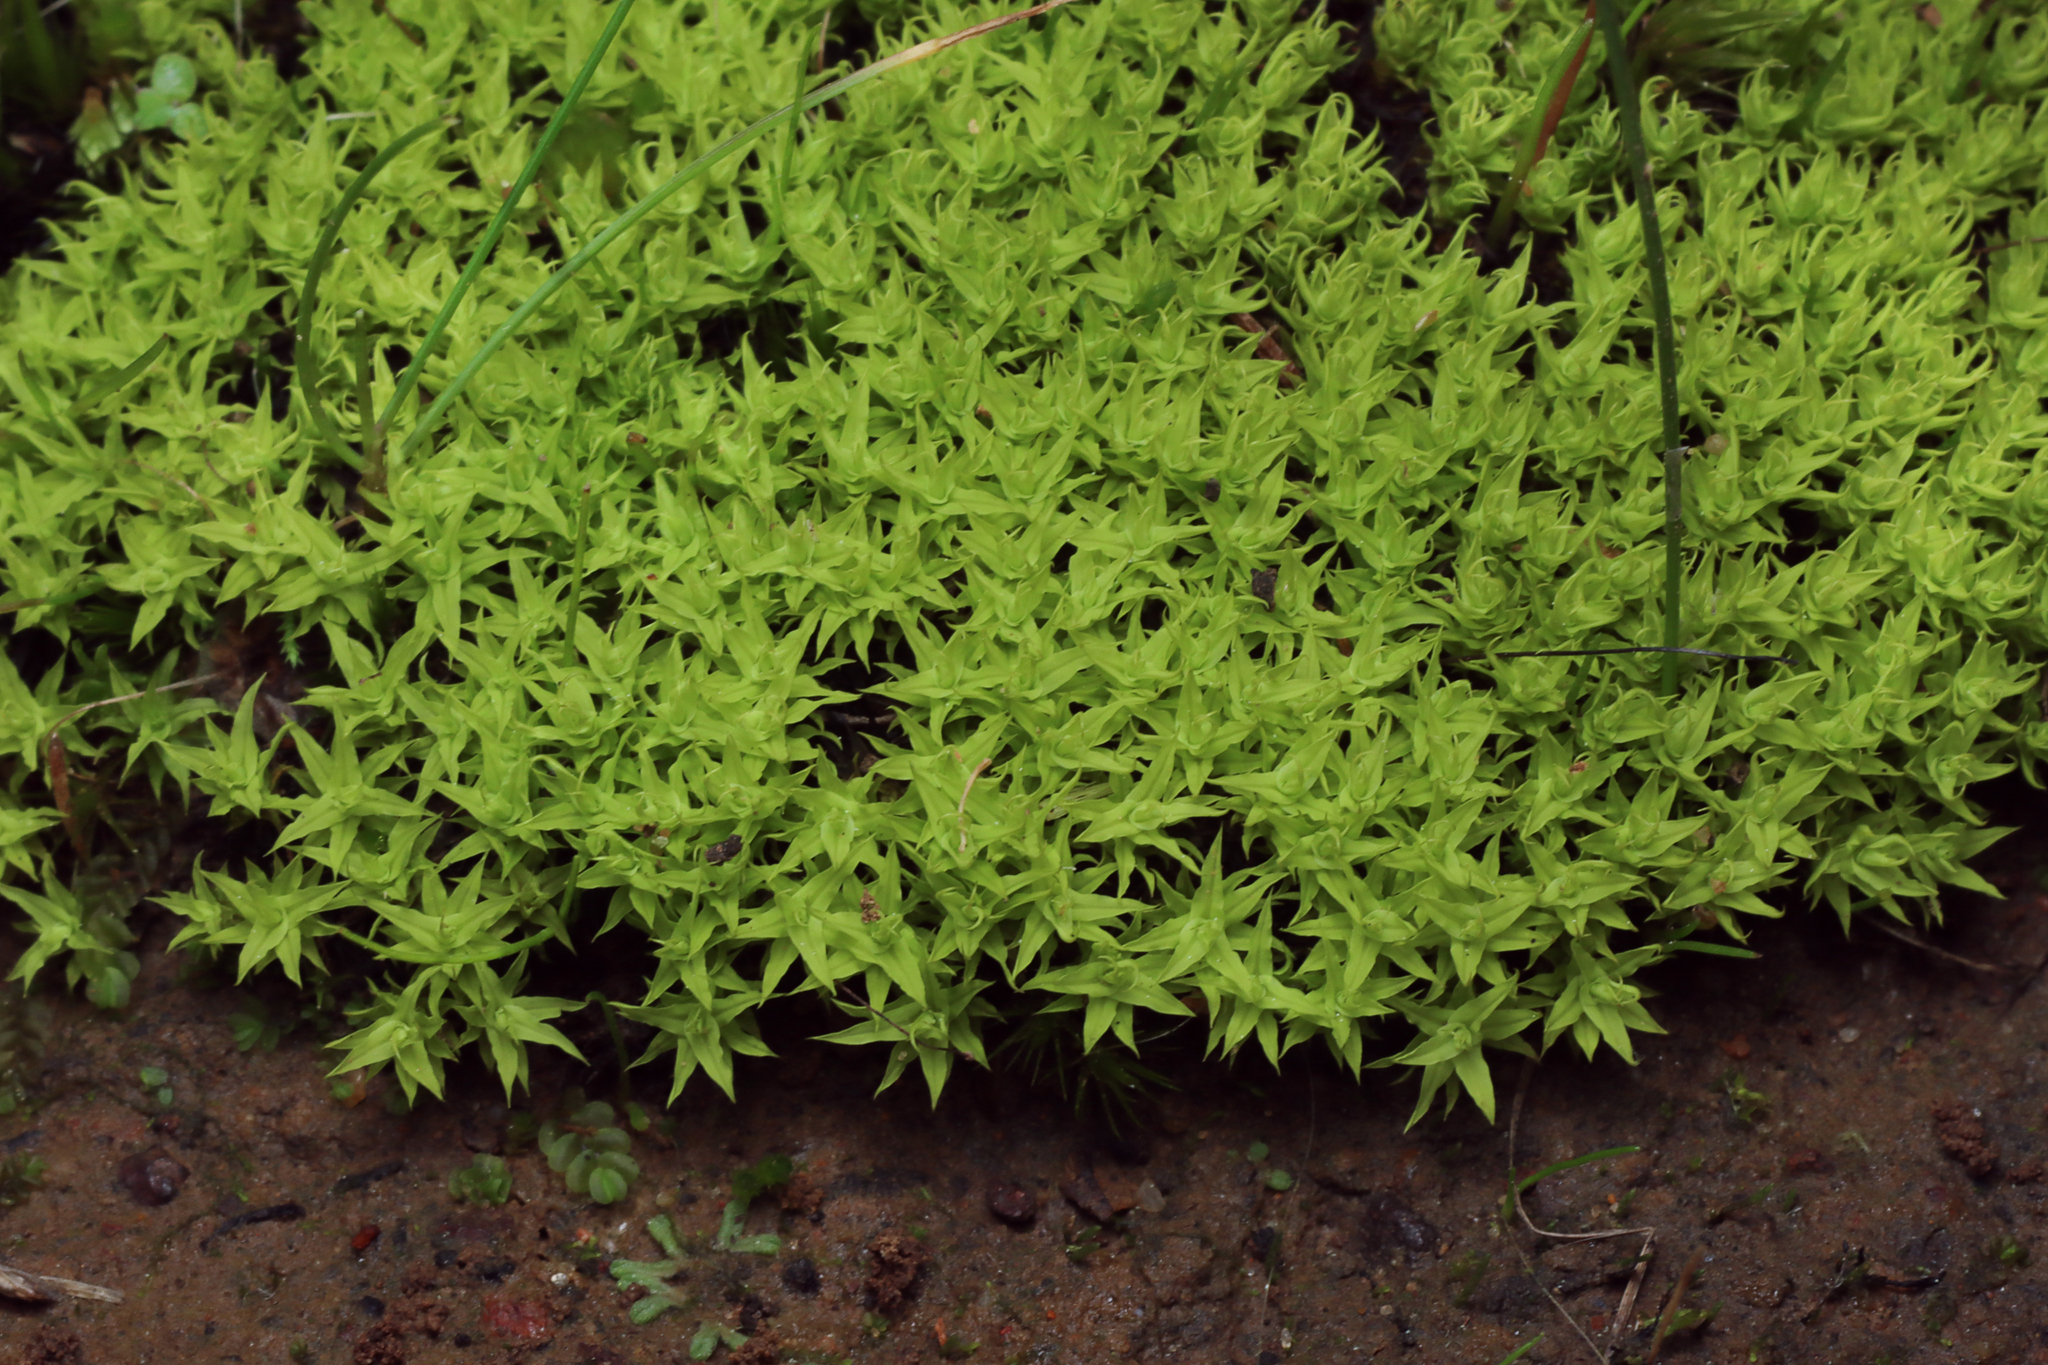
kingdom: Plantae
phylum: Bryophyta
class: Bryopsida
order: Pottiales
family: Pottiaceae
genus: Barbula
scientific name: Barbula calycina
